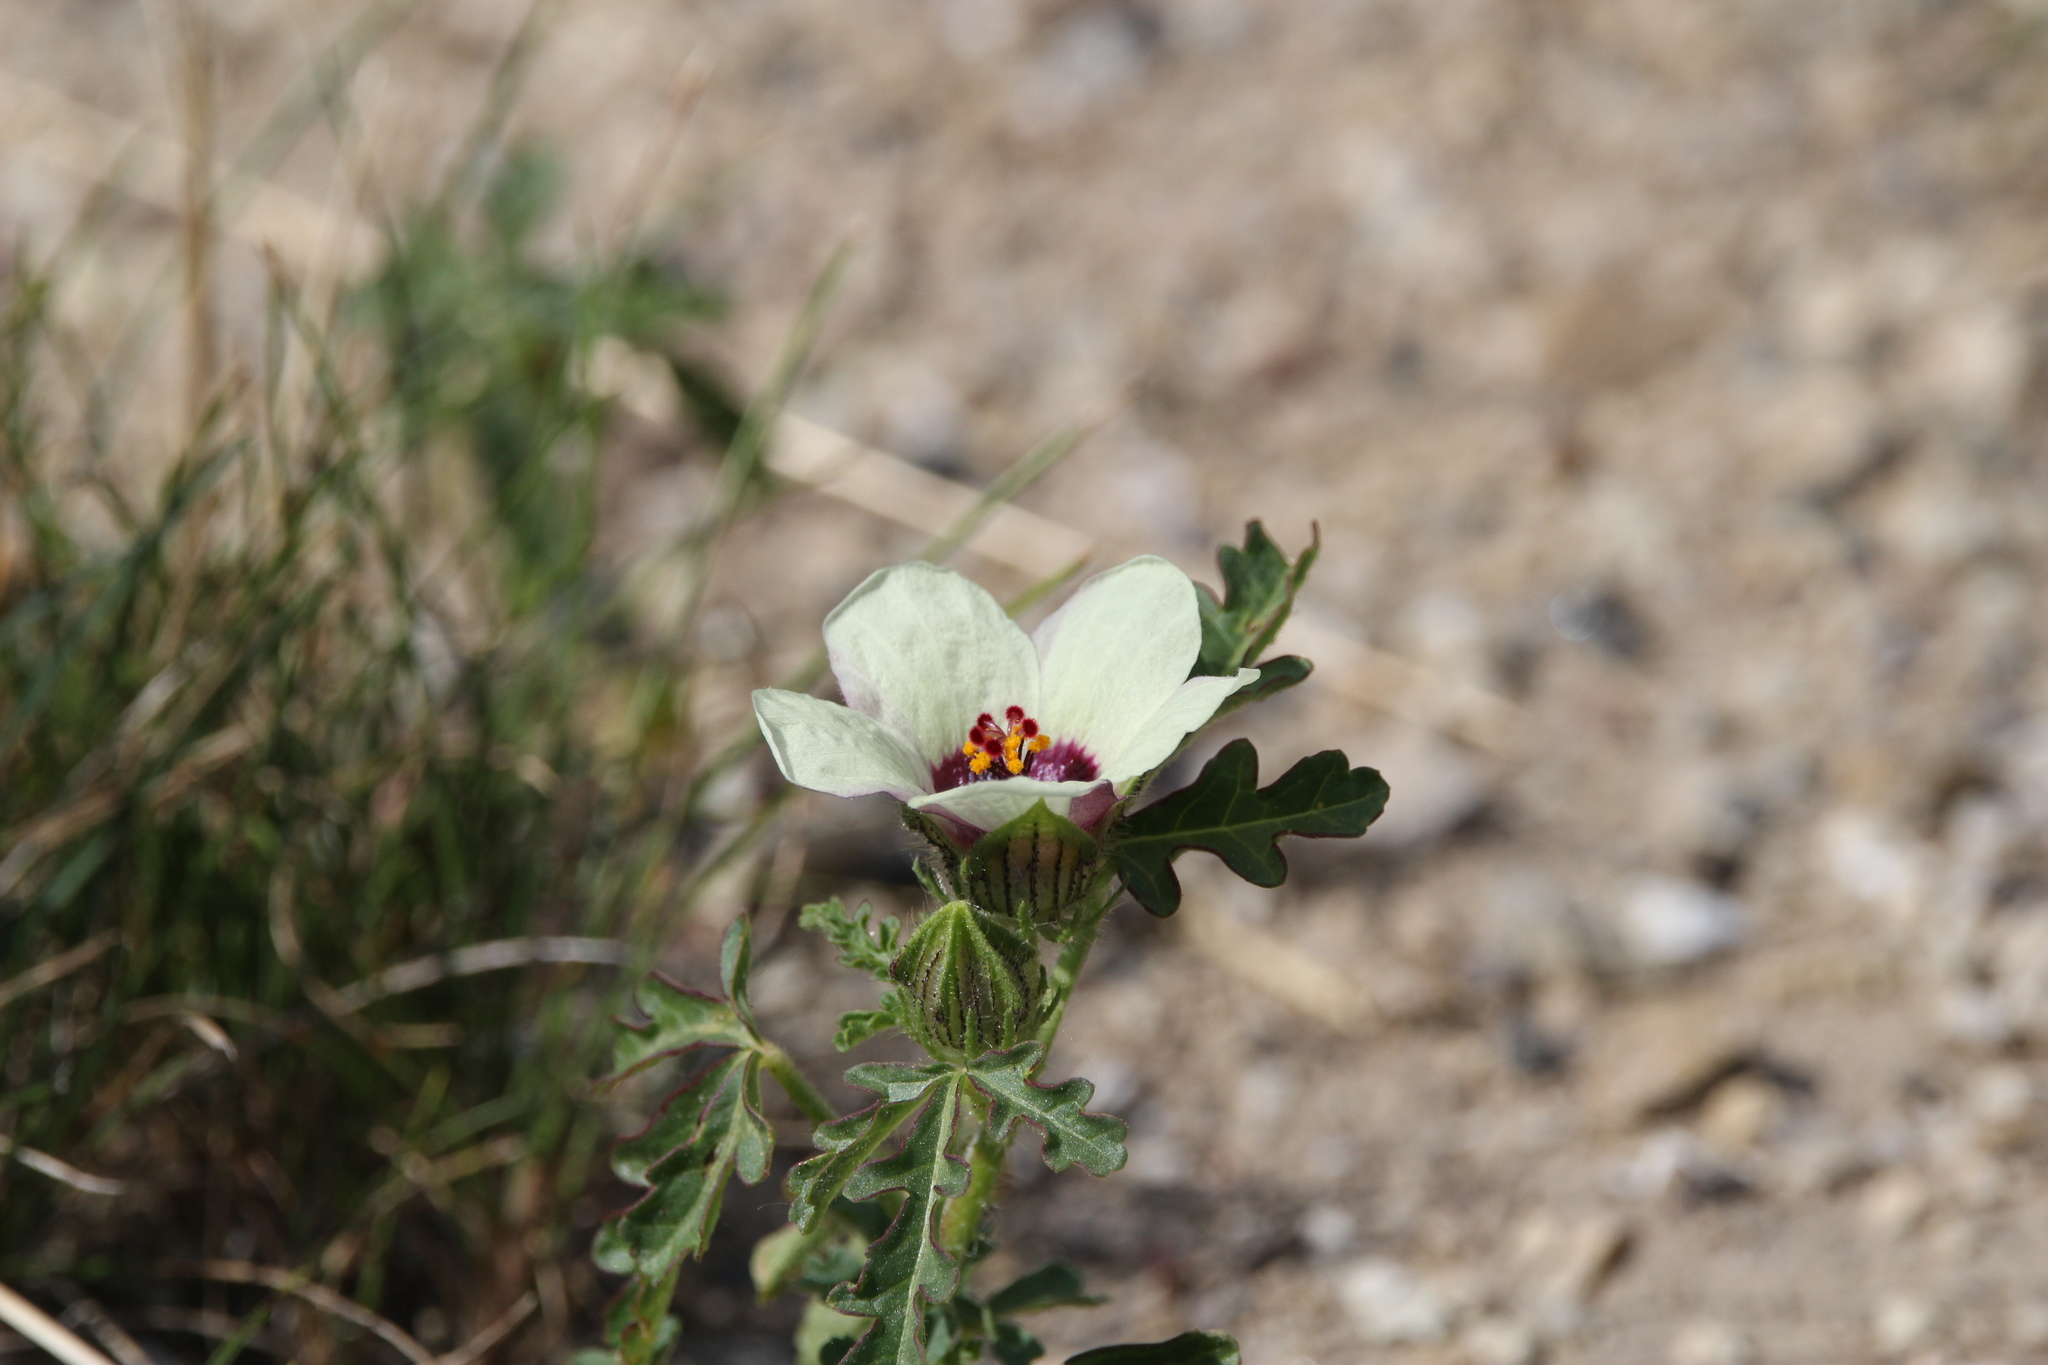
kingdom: Plantae
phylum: Tracheophyta
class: Magnoliopsida
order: Malvales
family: Malvaceae
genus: Hibiscus
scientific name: Hibiscus trionum
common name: Bladder ketmia
